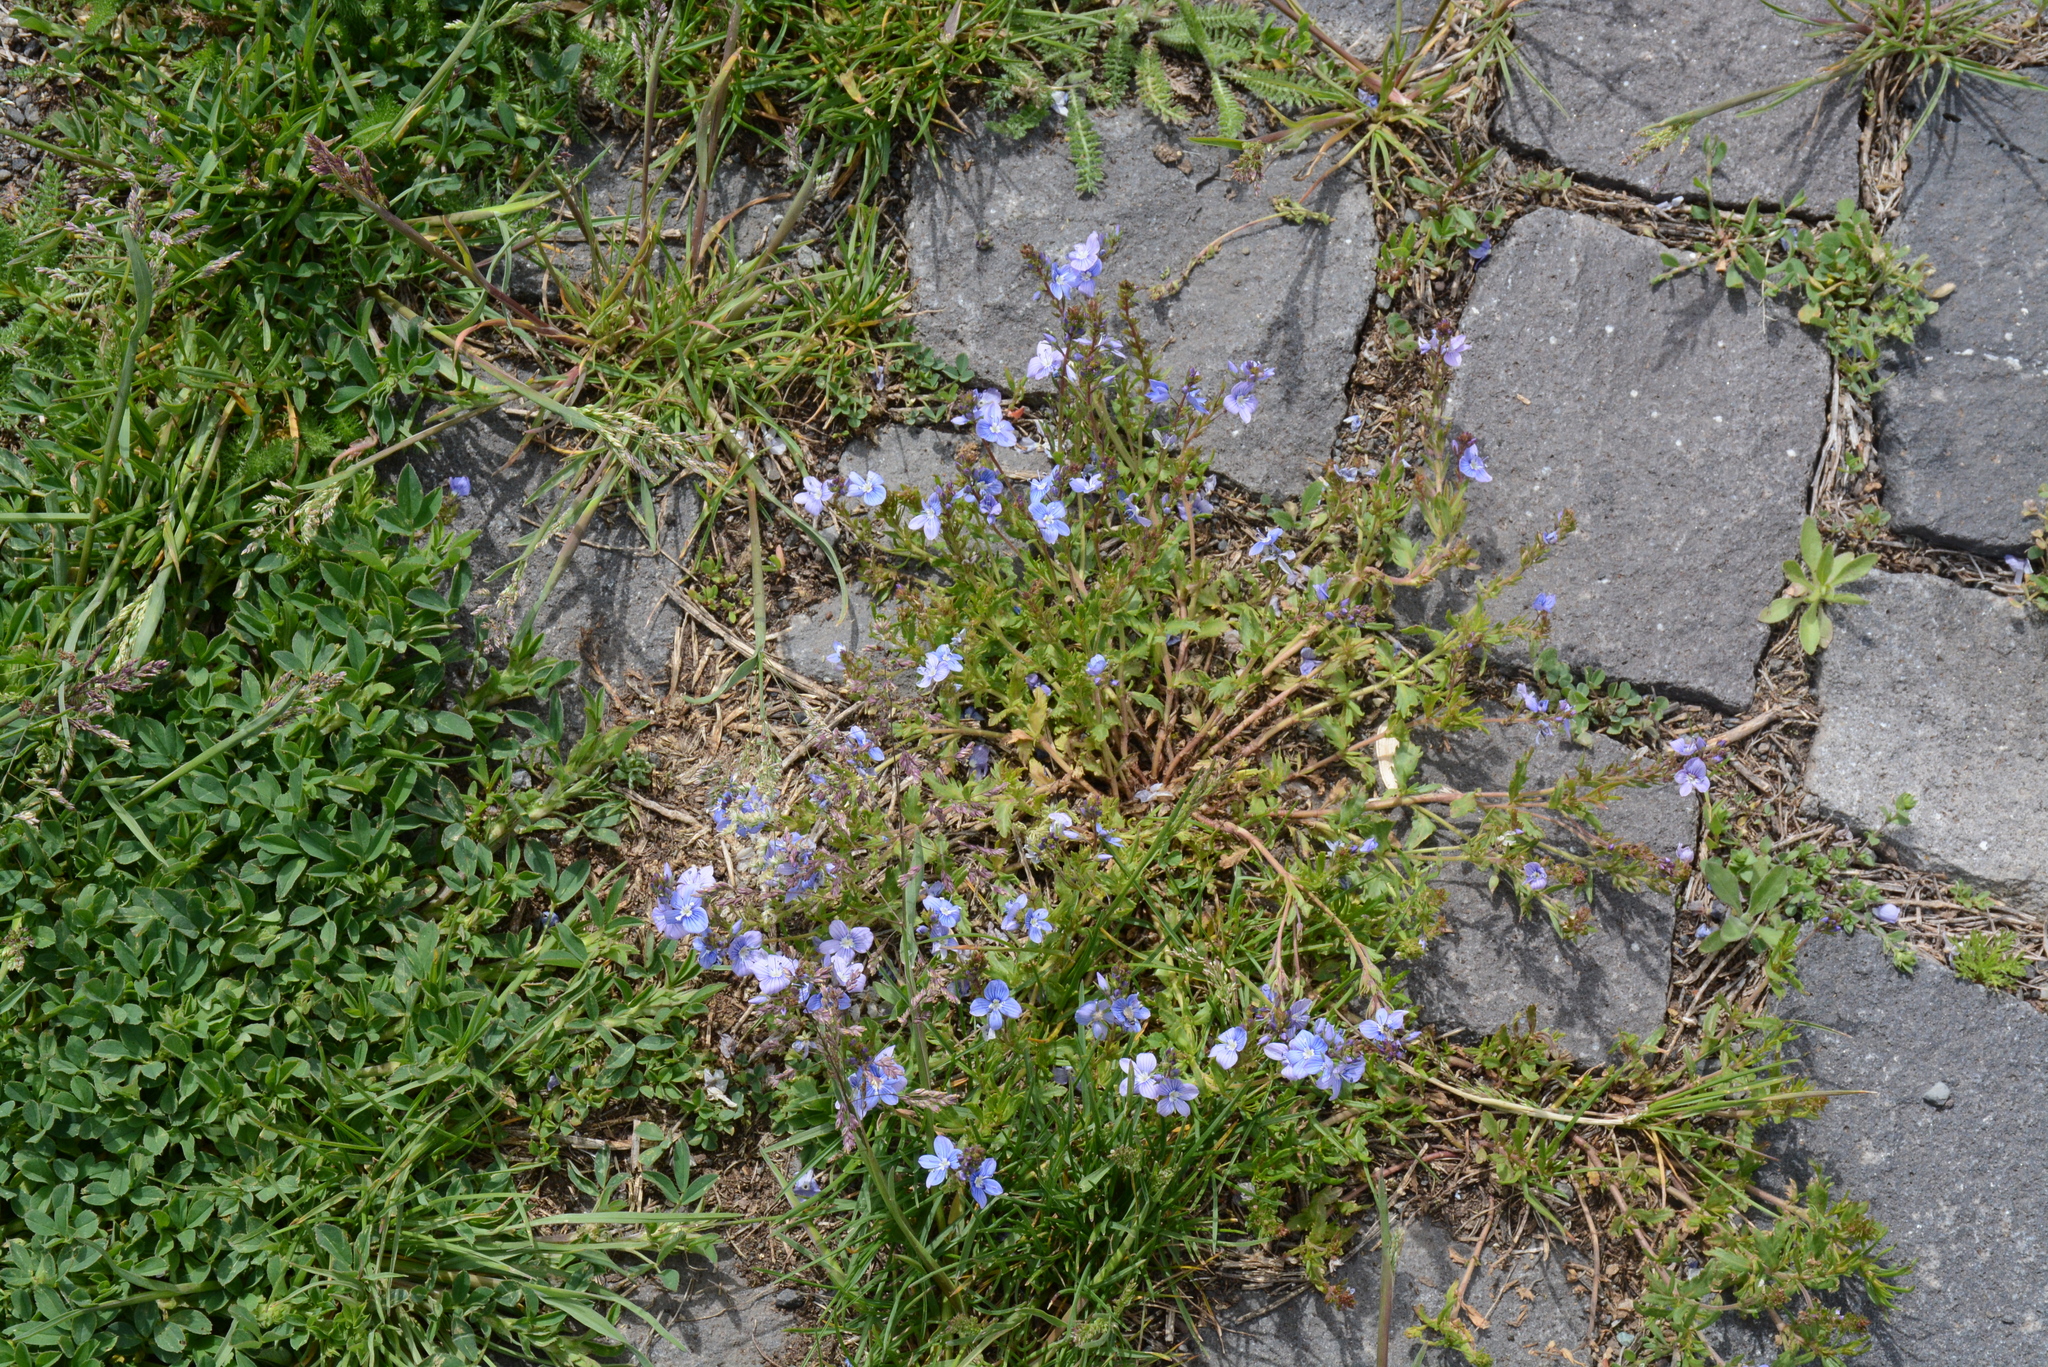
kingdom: Plantae
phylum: Tracheophyta
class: Magnoliopsida
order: Lamiales
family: Plantaginaceae
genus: Veronica
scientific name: Veronica orientalis
